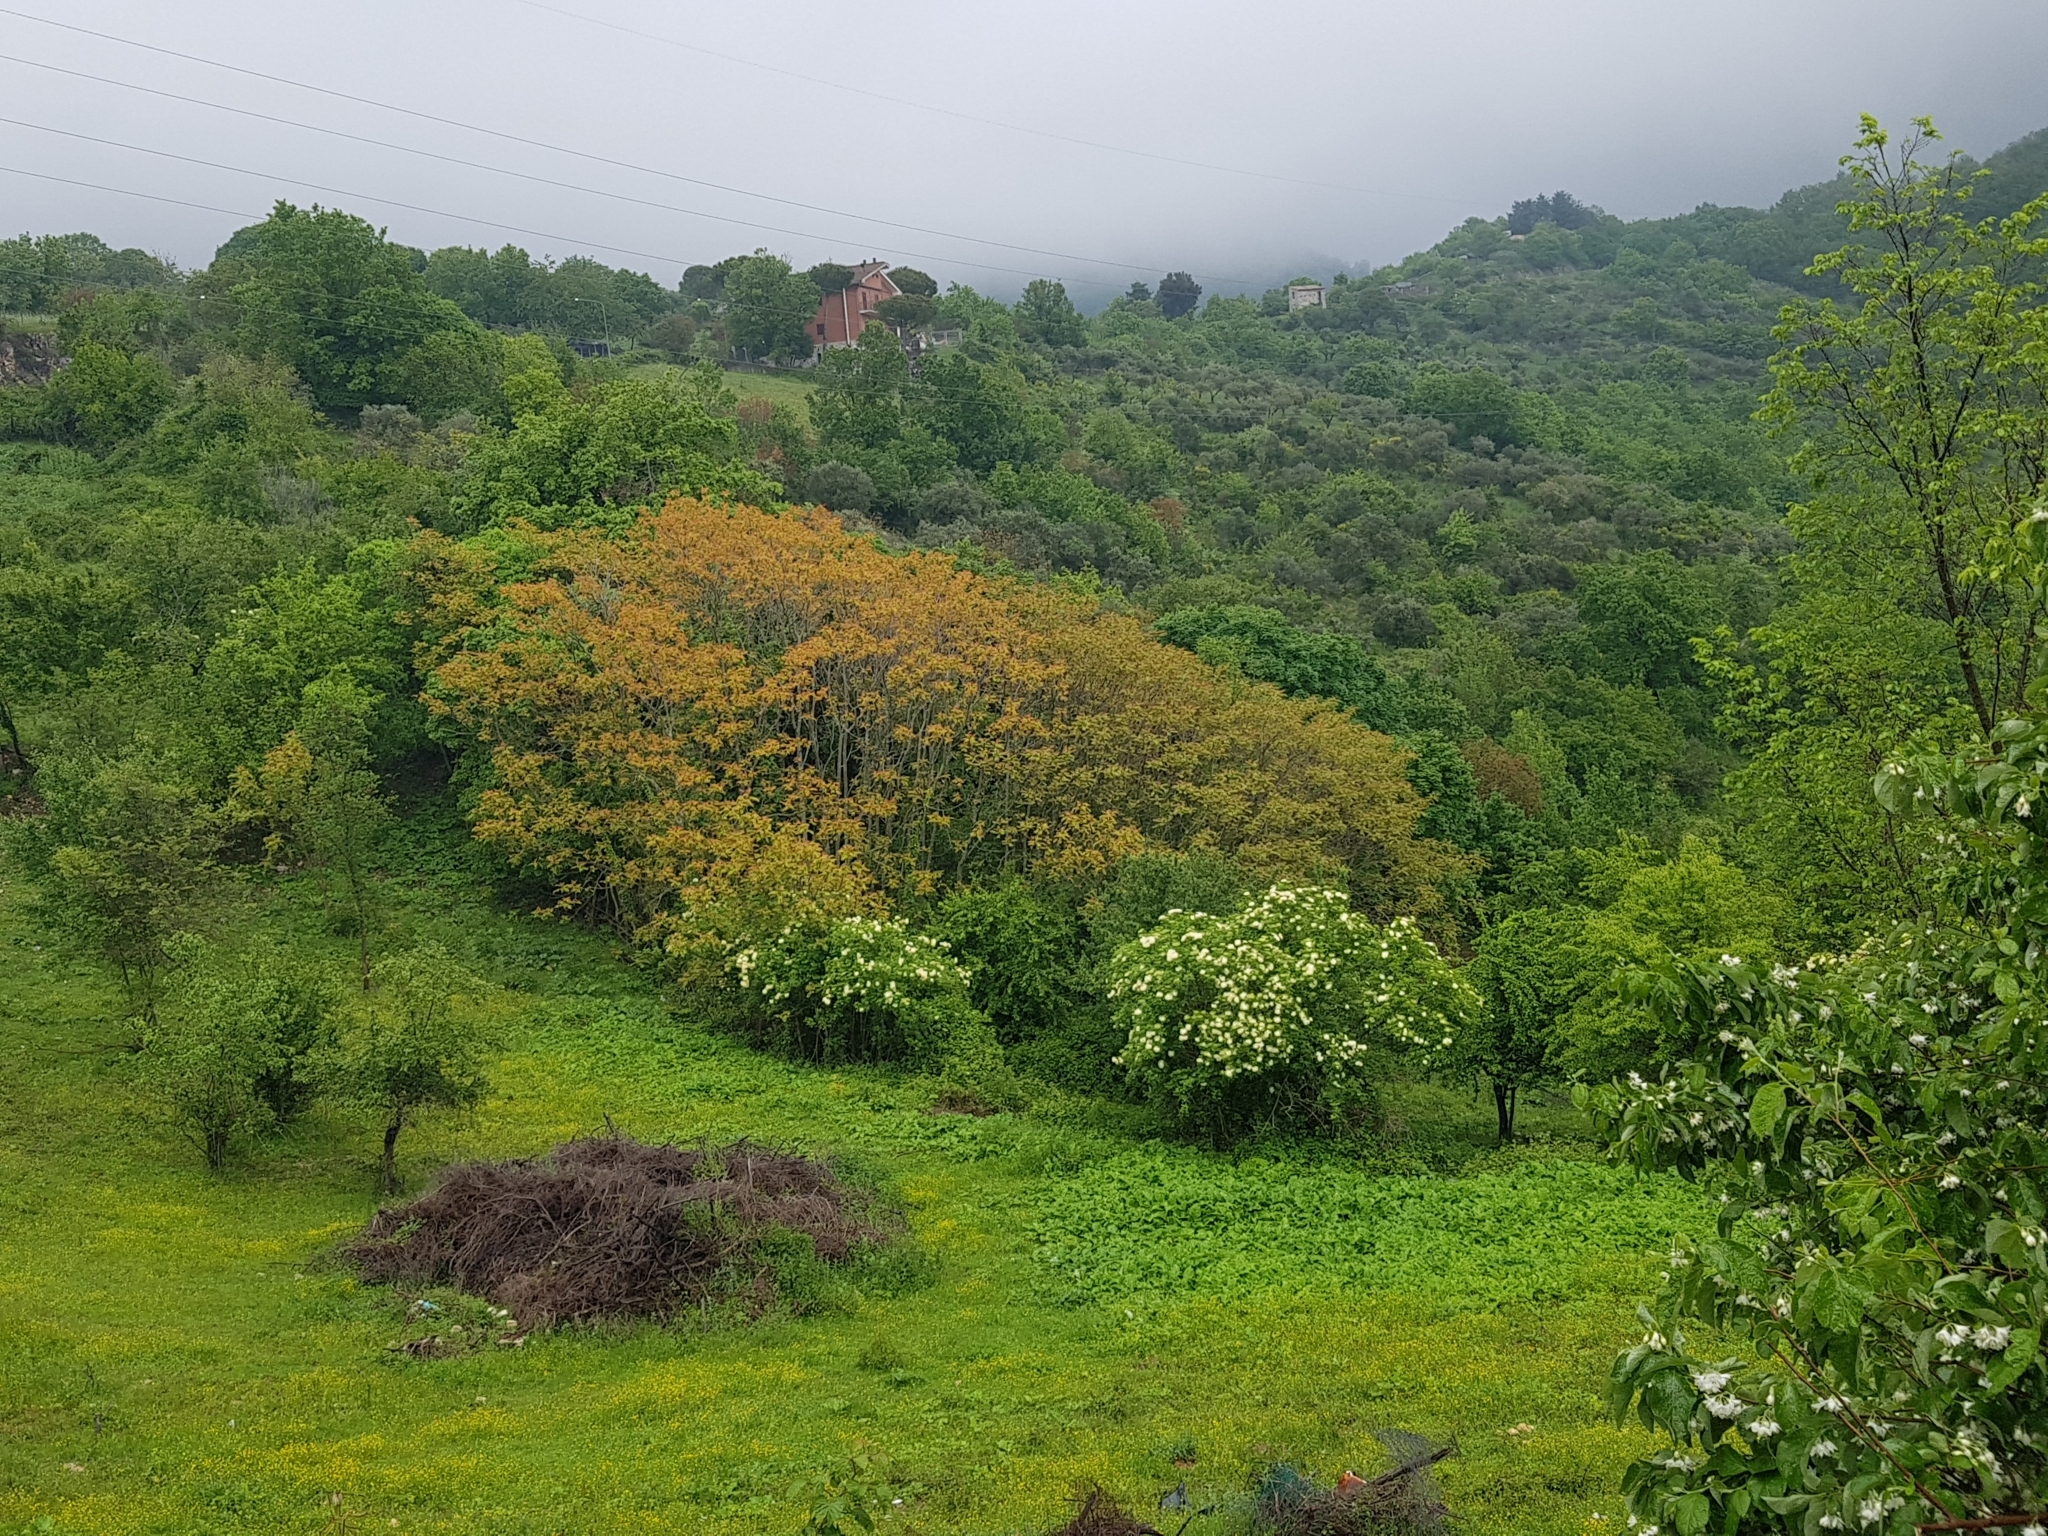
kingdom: Plantae
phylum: Tracheophyta
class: Magnoliopsida
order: Sapindales
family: Simaroubaceae
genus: Ailanthus
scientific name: Ailanthus altissima
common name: Tree-of-heaven
